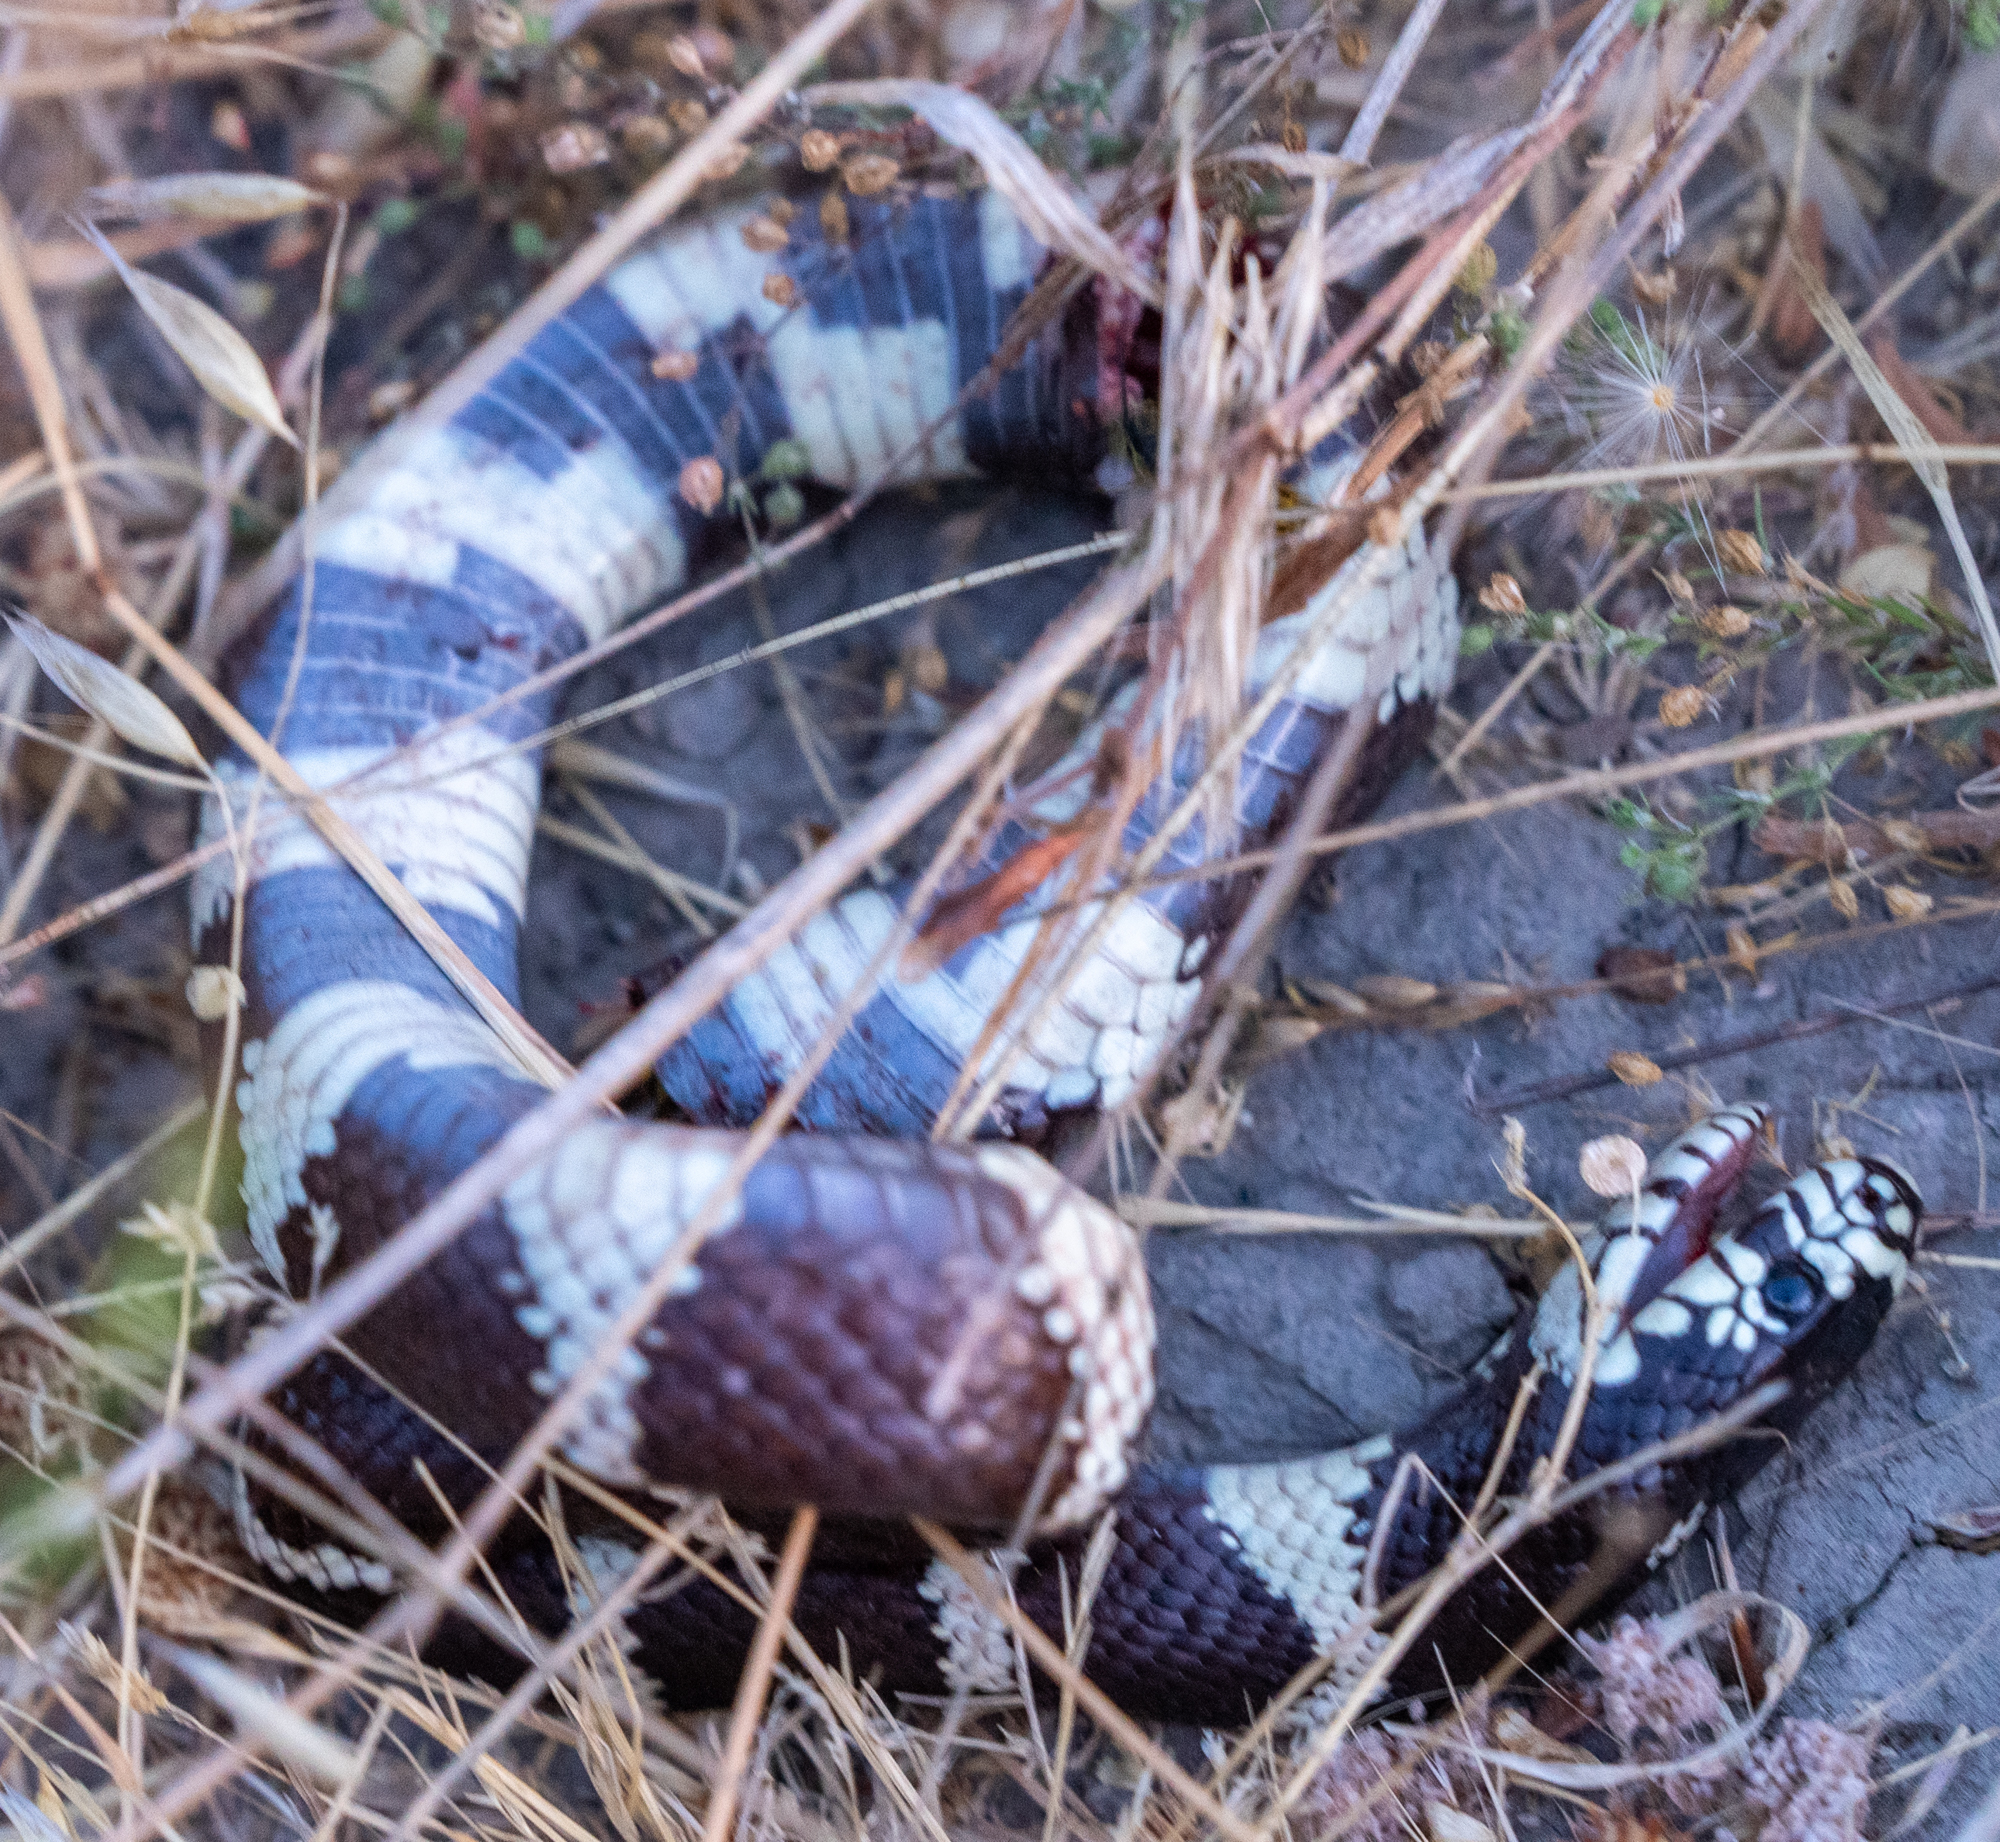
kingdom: Animalia
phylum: Chordata
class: Squamata
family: Colubridae
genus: Lampropeltis
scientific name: Lampropeltis californiae
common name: California kingsnake
